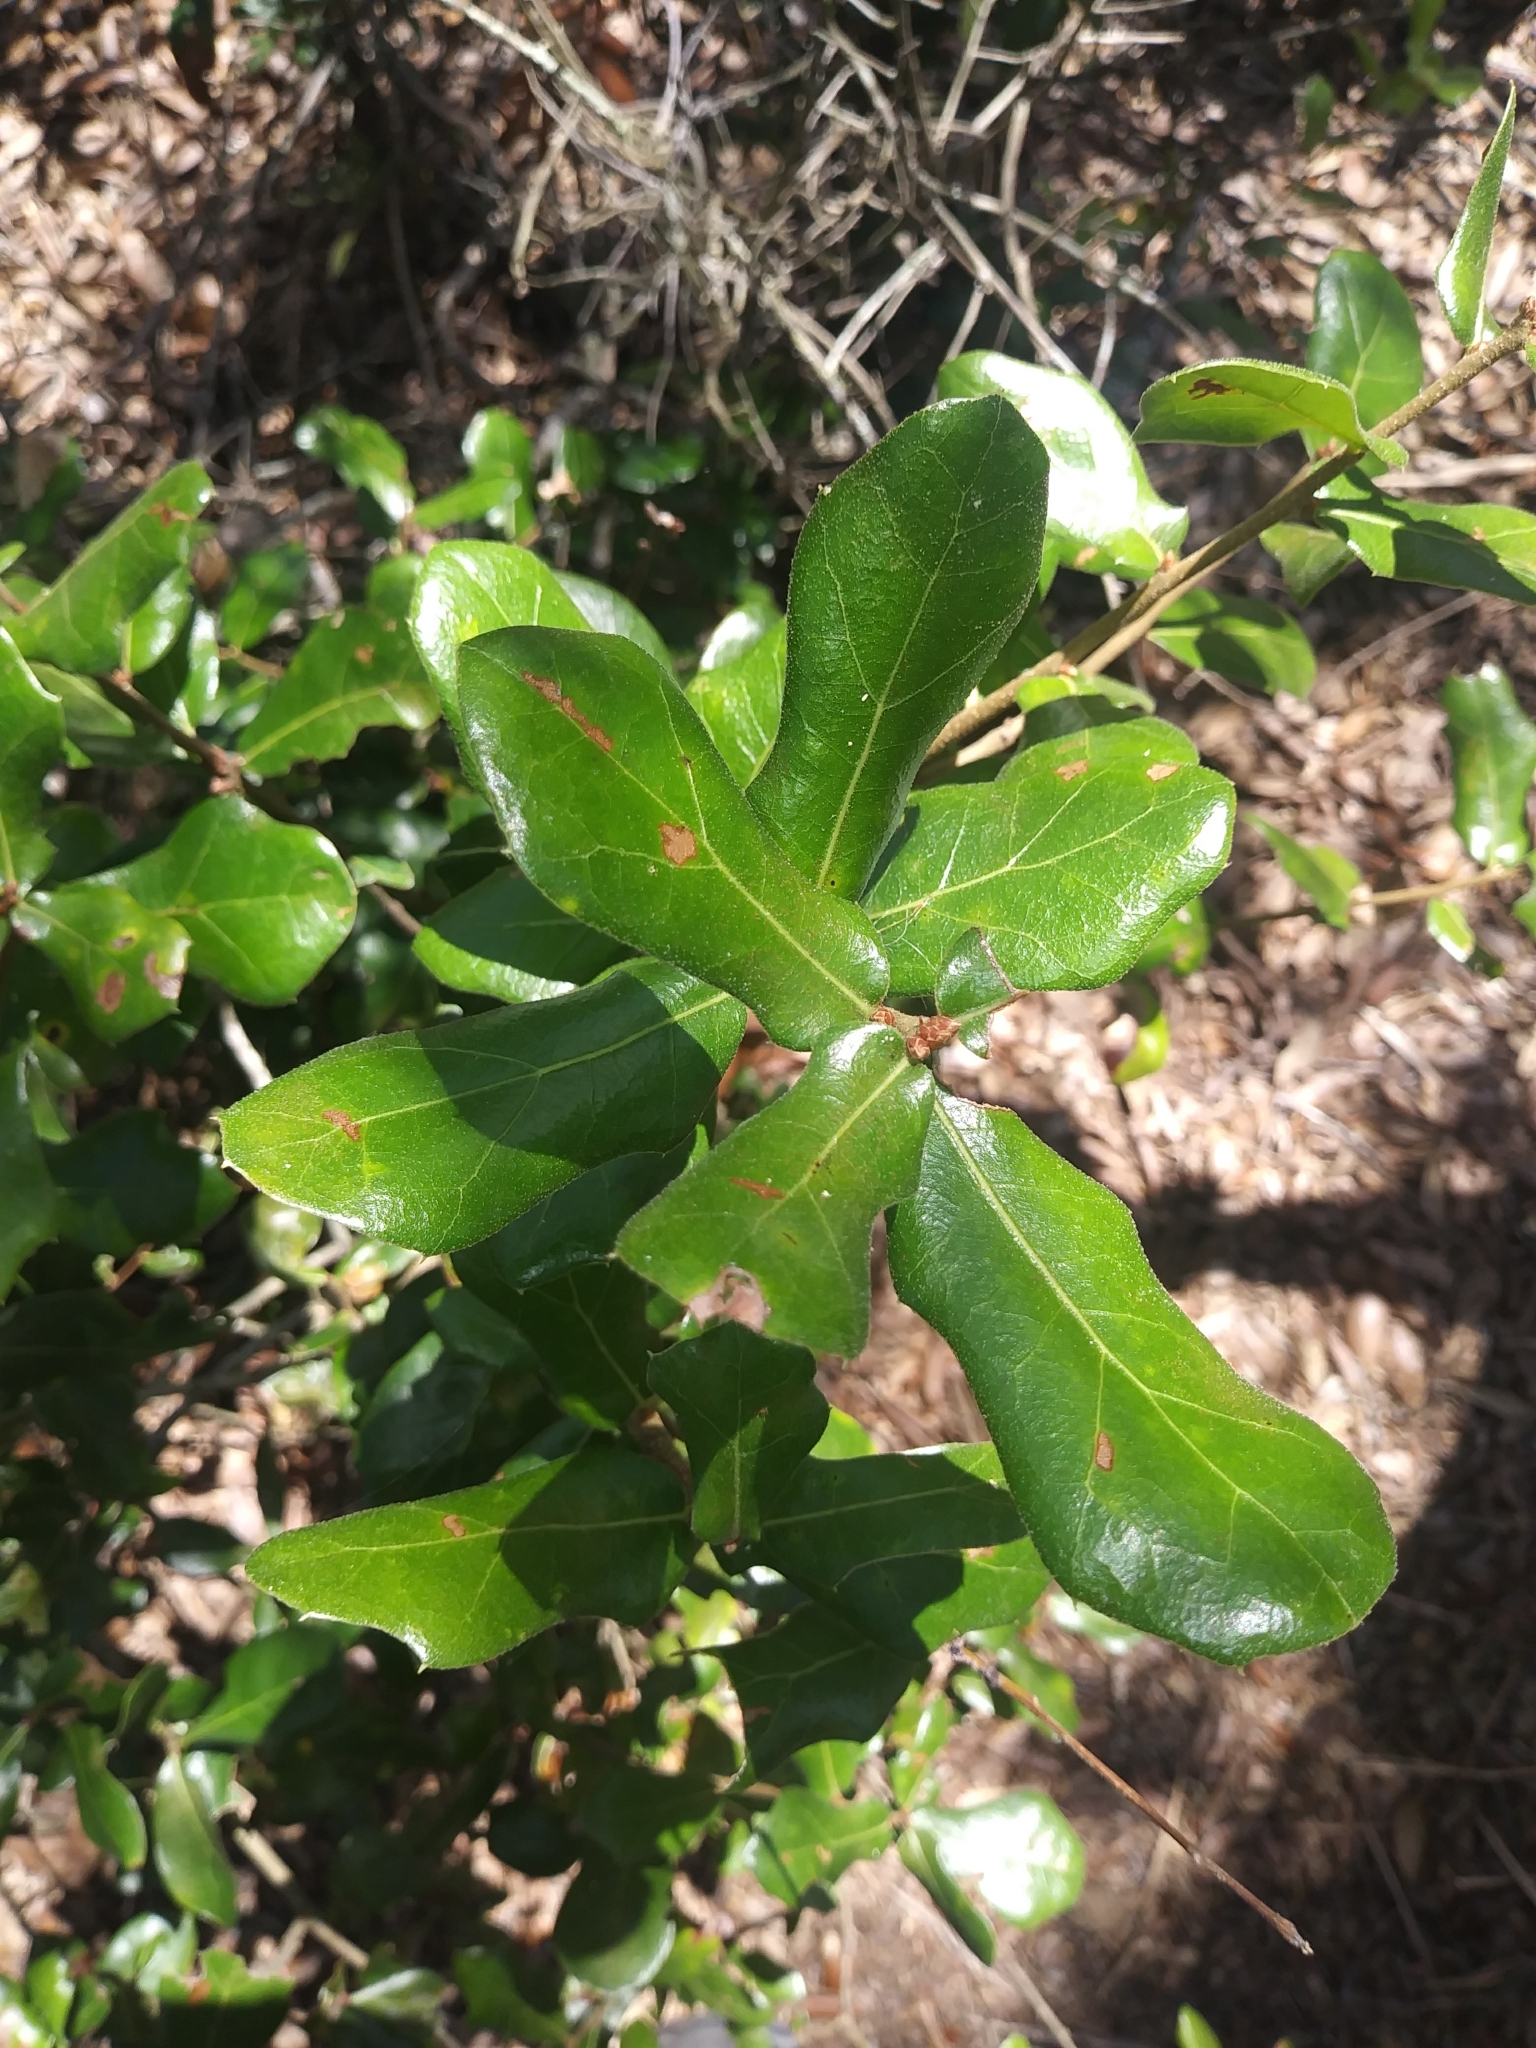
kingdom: Plantae
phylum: Tracheophyta
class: Magnoliopsida
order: Fagales
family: Fagaceae
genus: Quercus
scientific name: Quercus myrtifolia
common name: Myrtle oak
